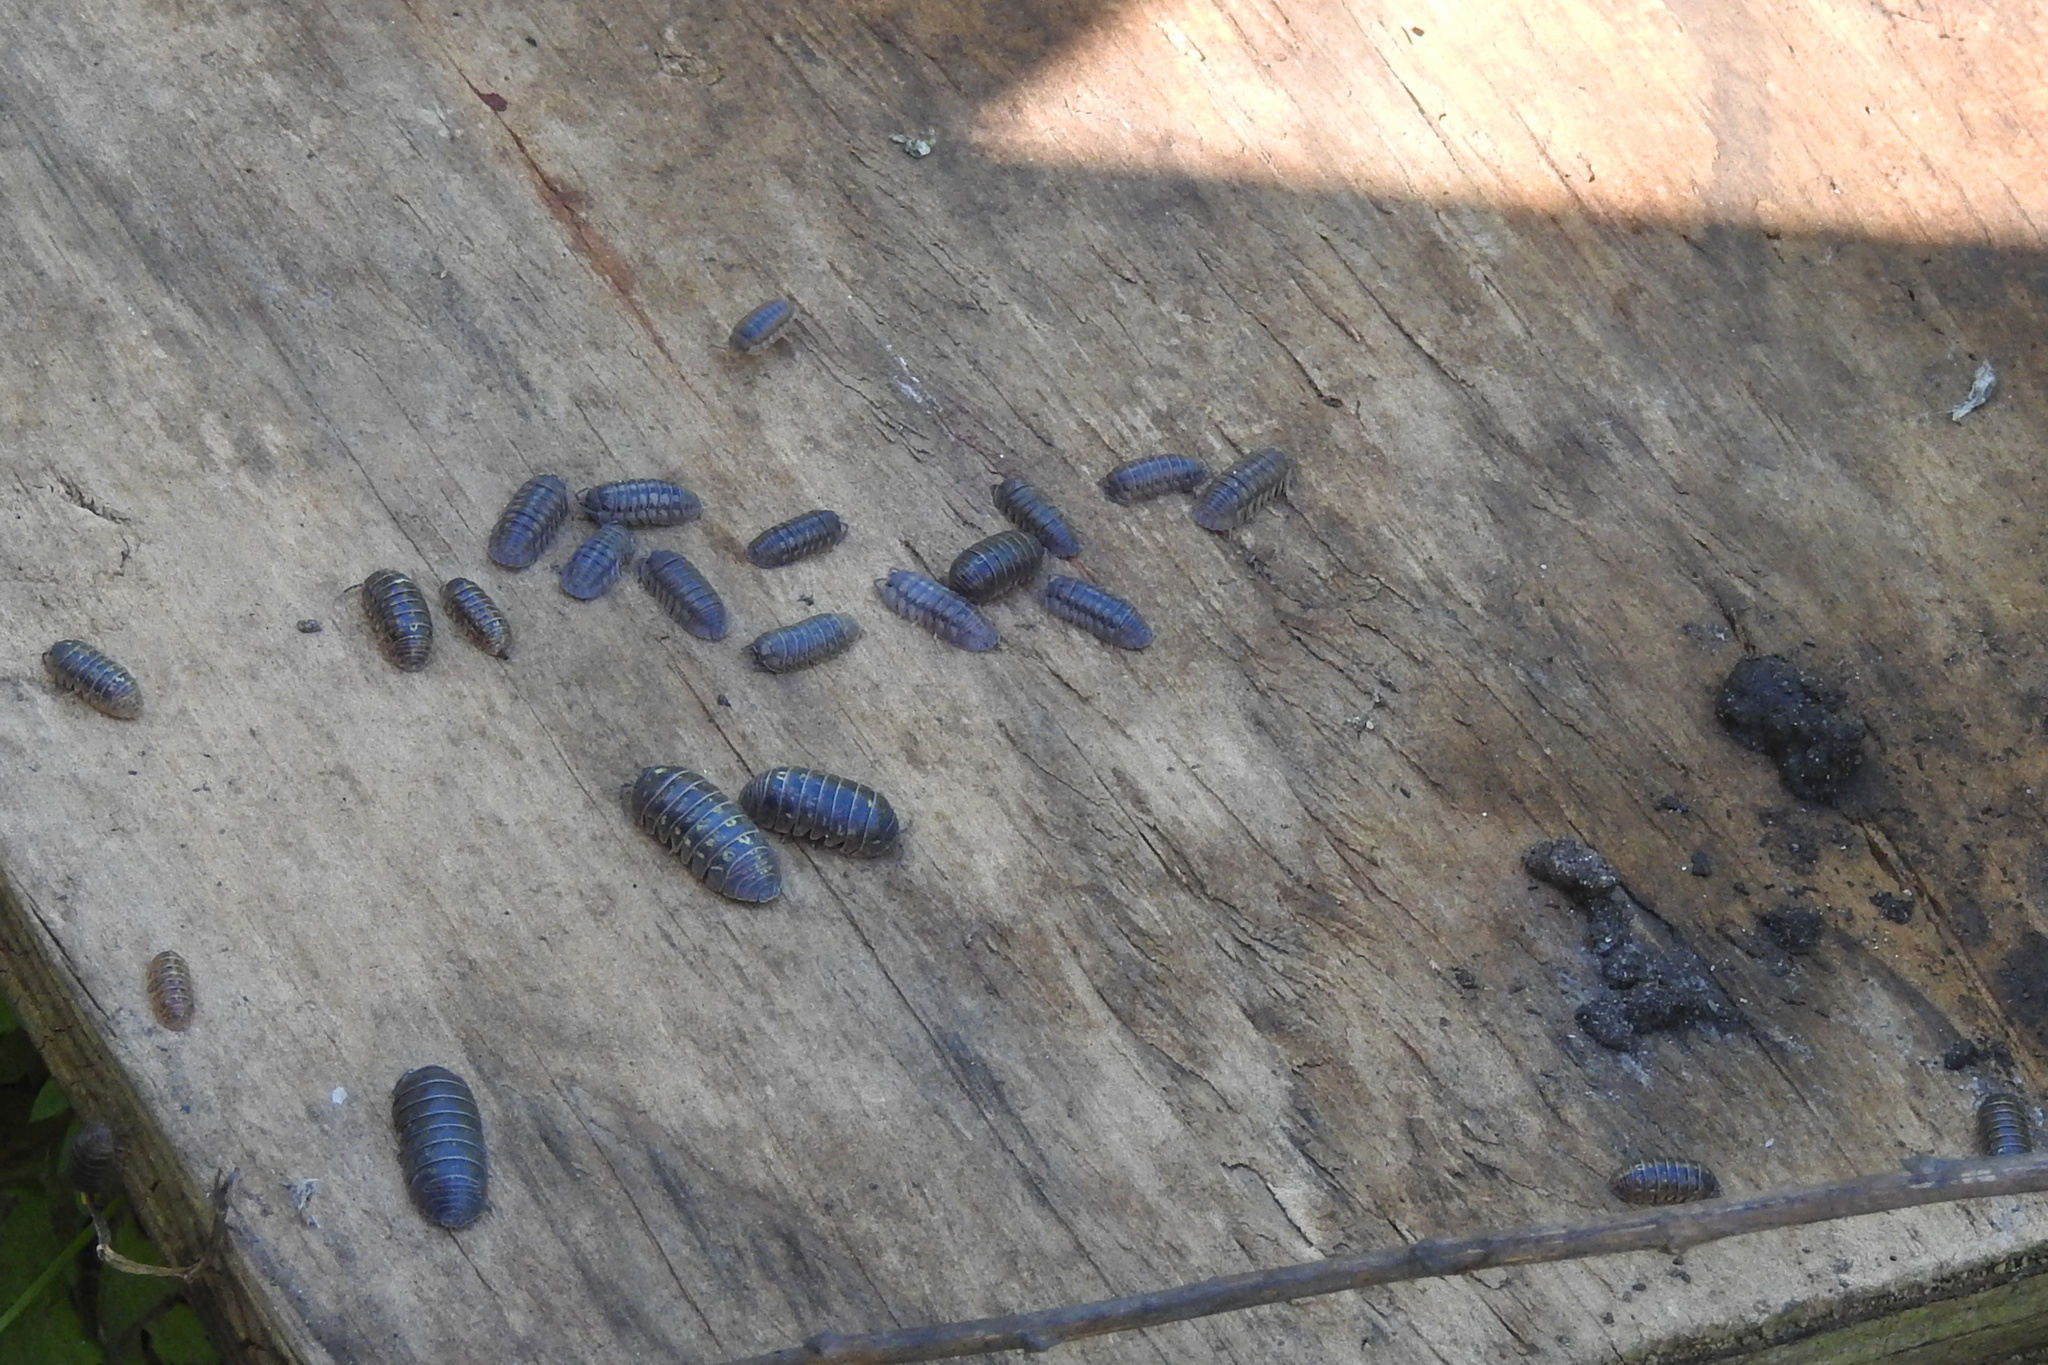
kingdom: Animalia
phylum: Arthropoda
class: Malacostraca
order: Isopoda
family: Armadillidiidae
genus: Armadillidium
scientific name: Armadillidium vulgare
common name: Common pill woodlouse
